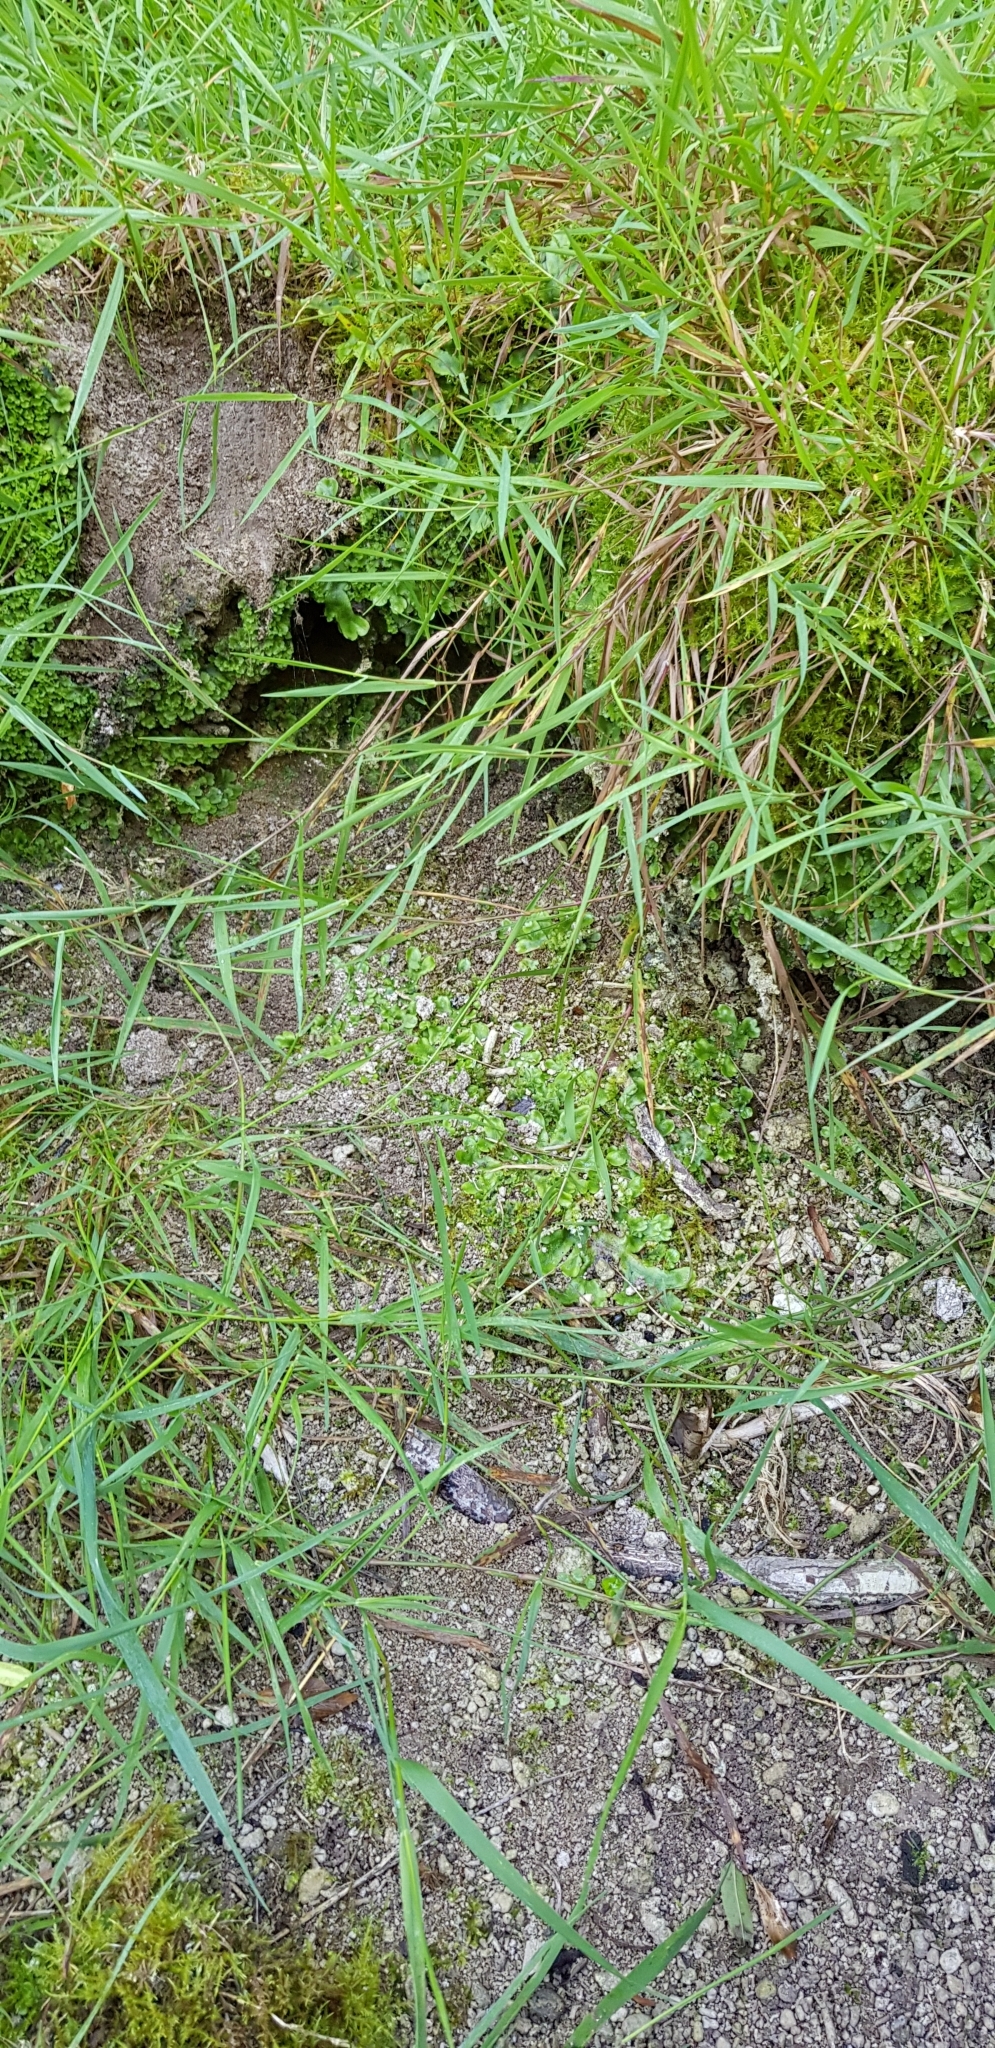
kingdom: Plantae
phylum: Marchantiophyta
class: Marchantiopsida
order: Marchantiales
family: Conocephalaceae
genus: Conocephalum
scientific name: Conocephalum conicum
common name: Great scented liverwort
